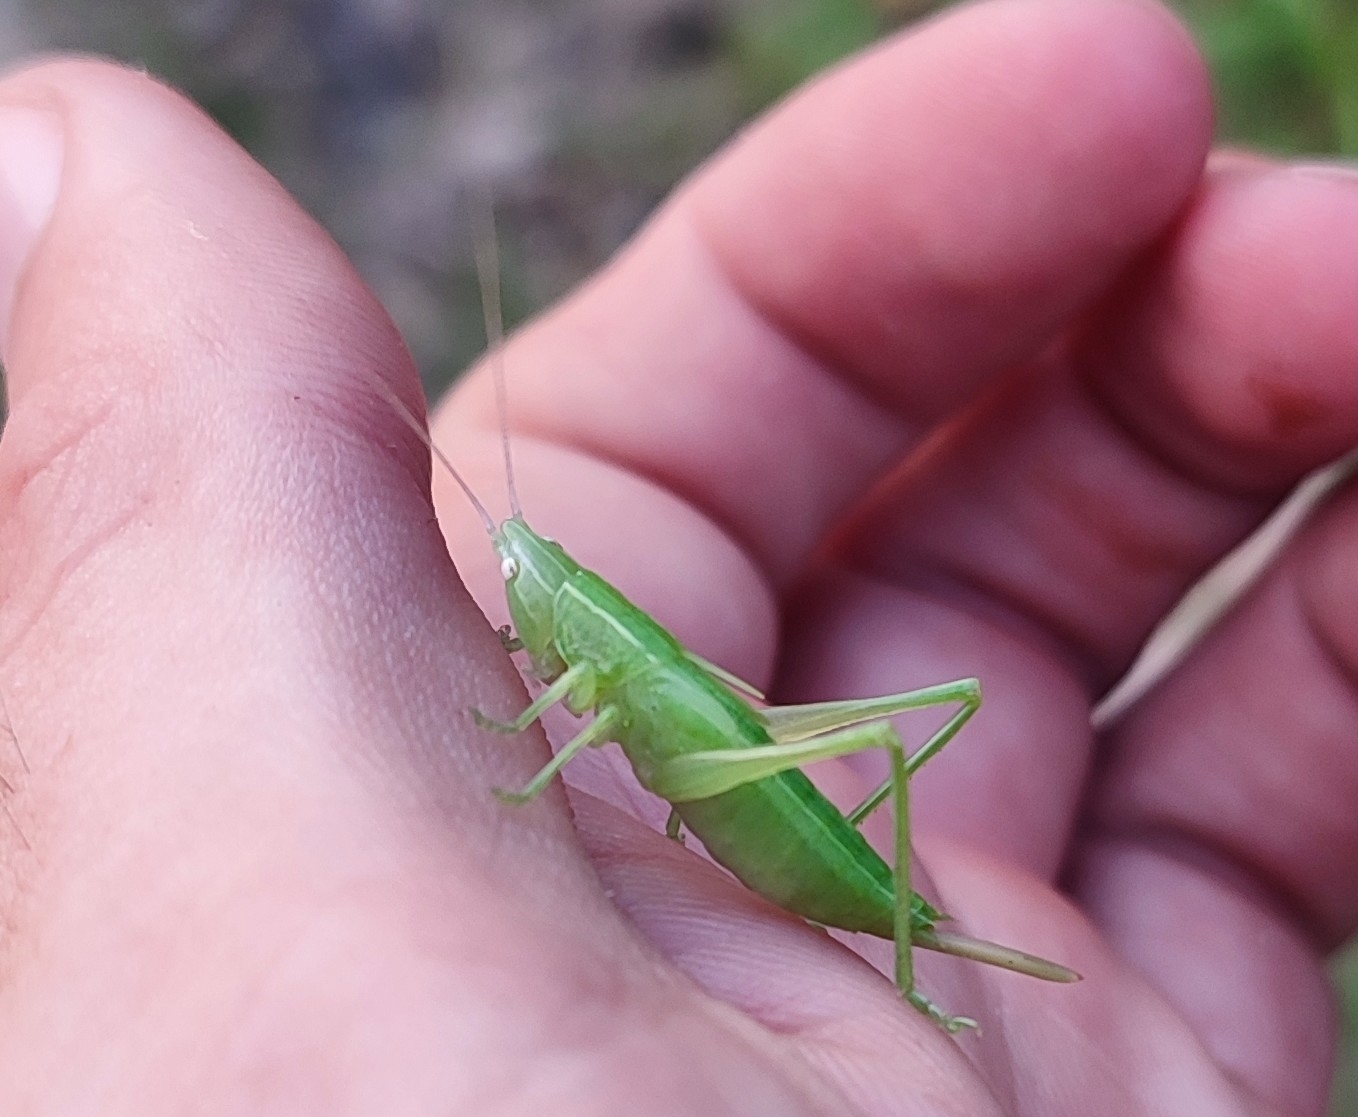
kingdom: Animalia
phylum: Arthropoda
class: Insecta
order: Orthoptera
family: Tettigoniidae
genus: Ruspolia
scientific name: Ruspolia nitidula
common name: Large conehead
